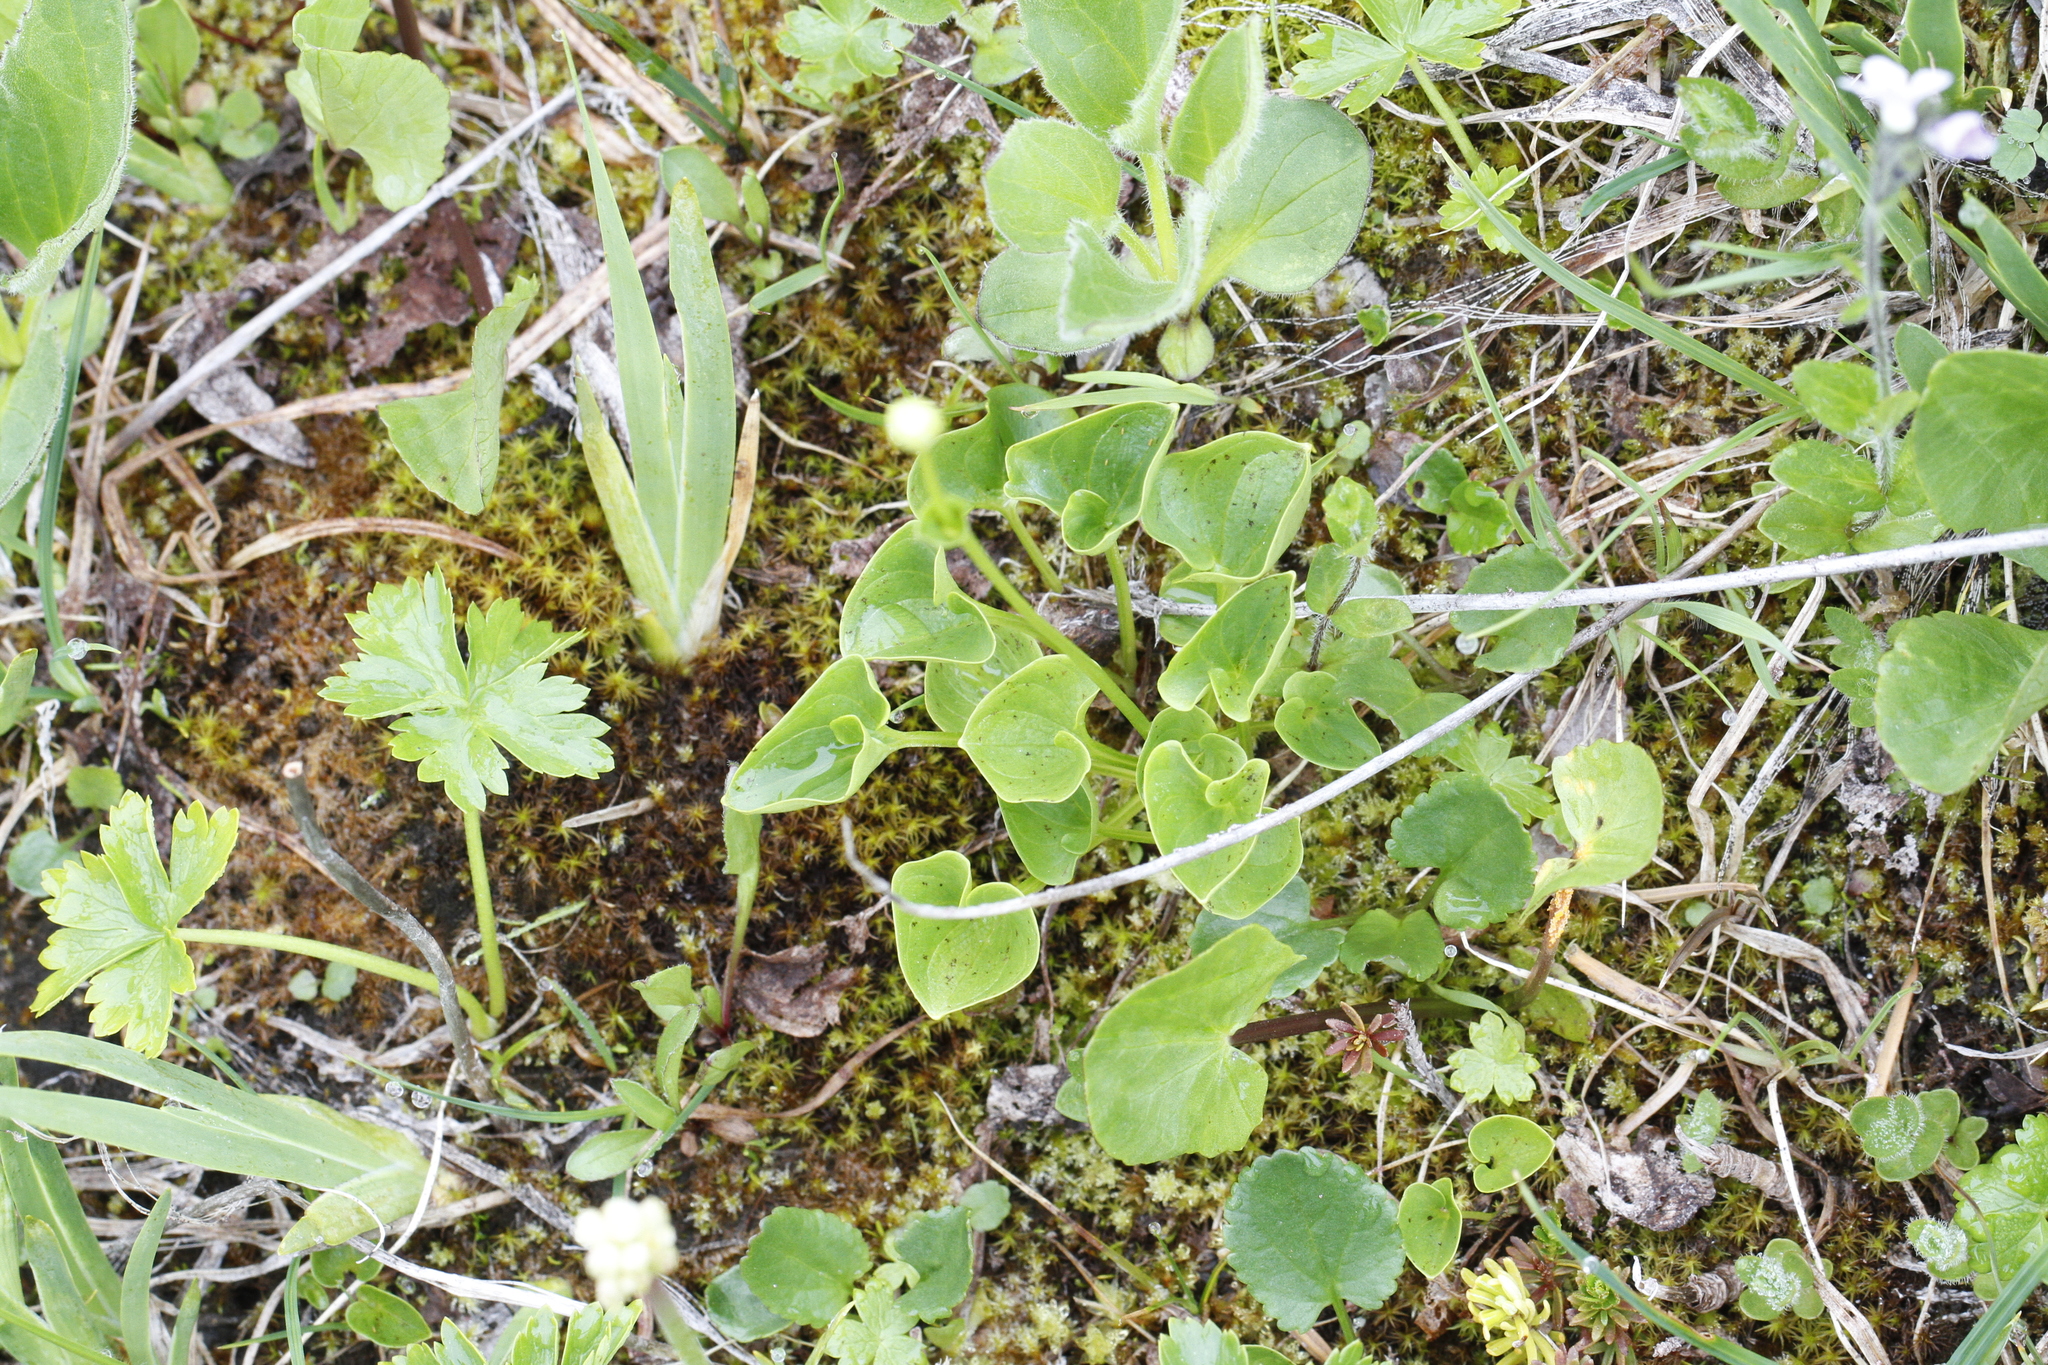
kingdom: Plantae
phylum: Tracheophyta
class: Magnoliopsida
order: Celastrales
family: Parnassiaceae
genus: Parnassia
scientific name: Parnassia fimbriata
